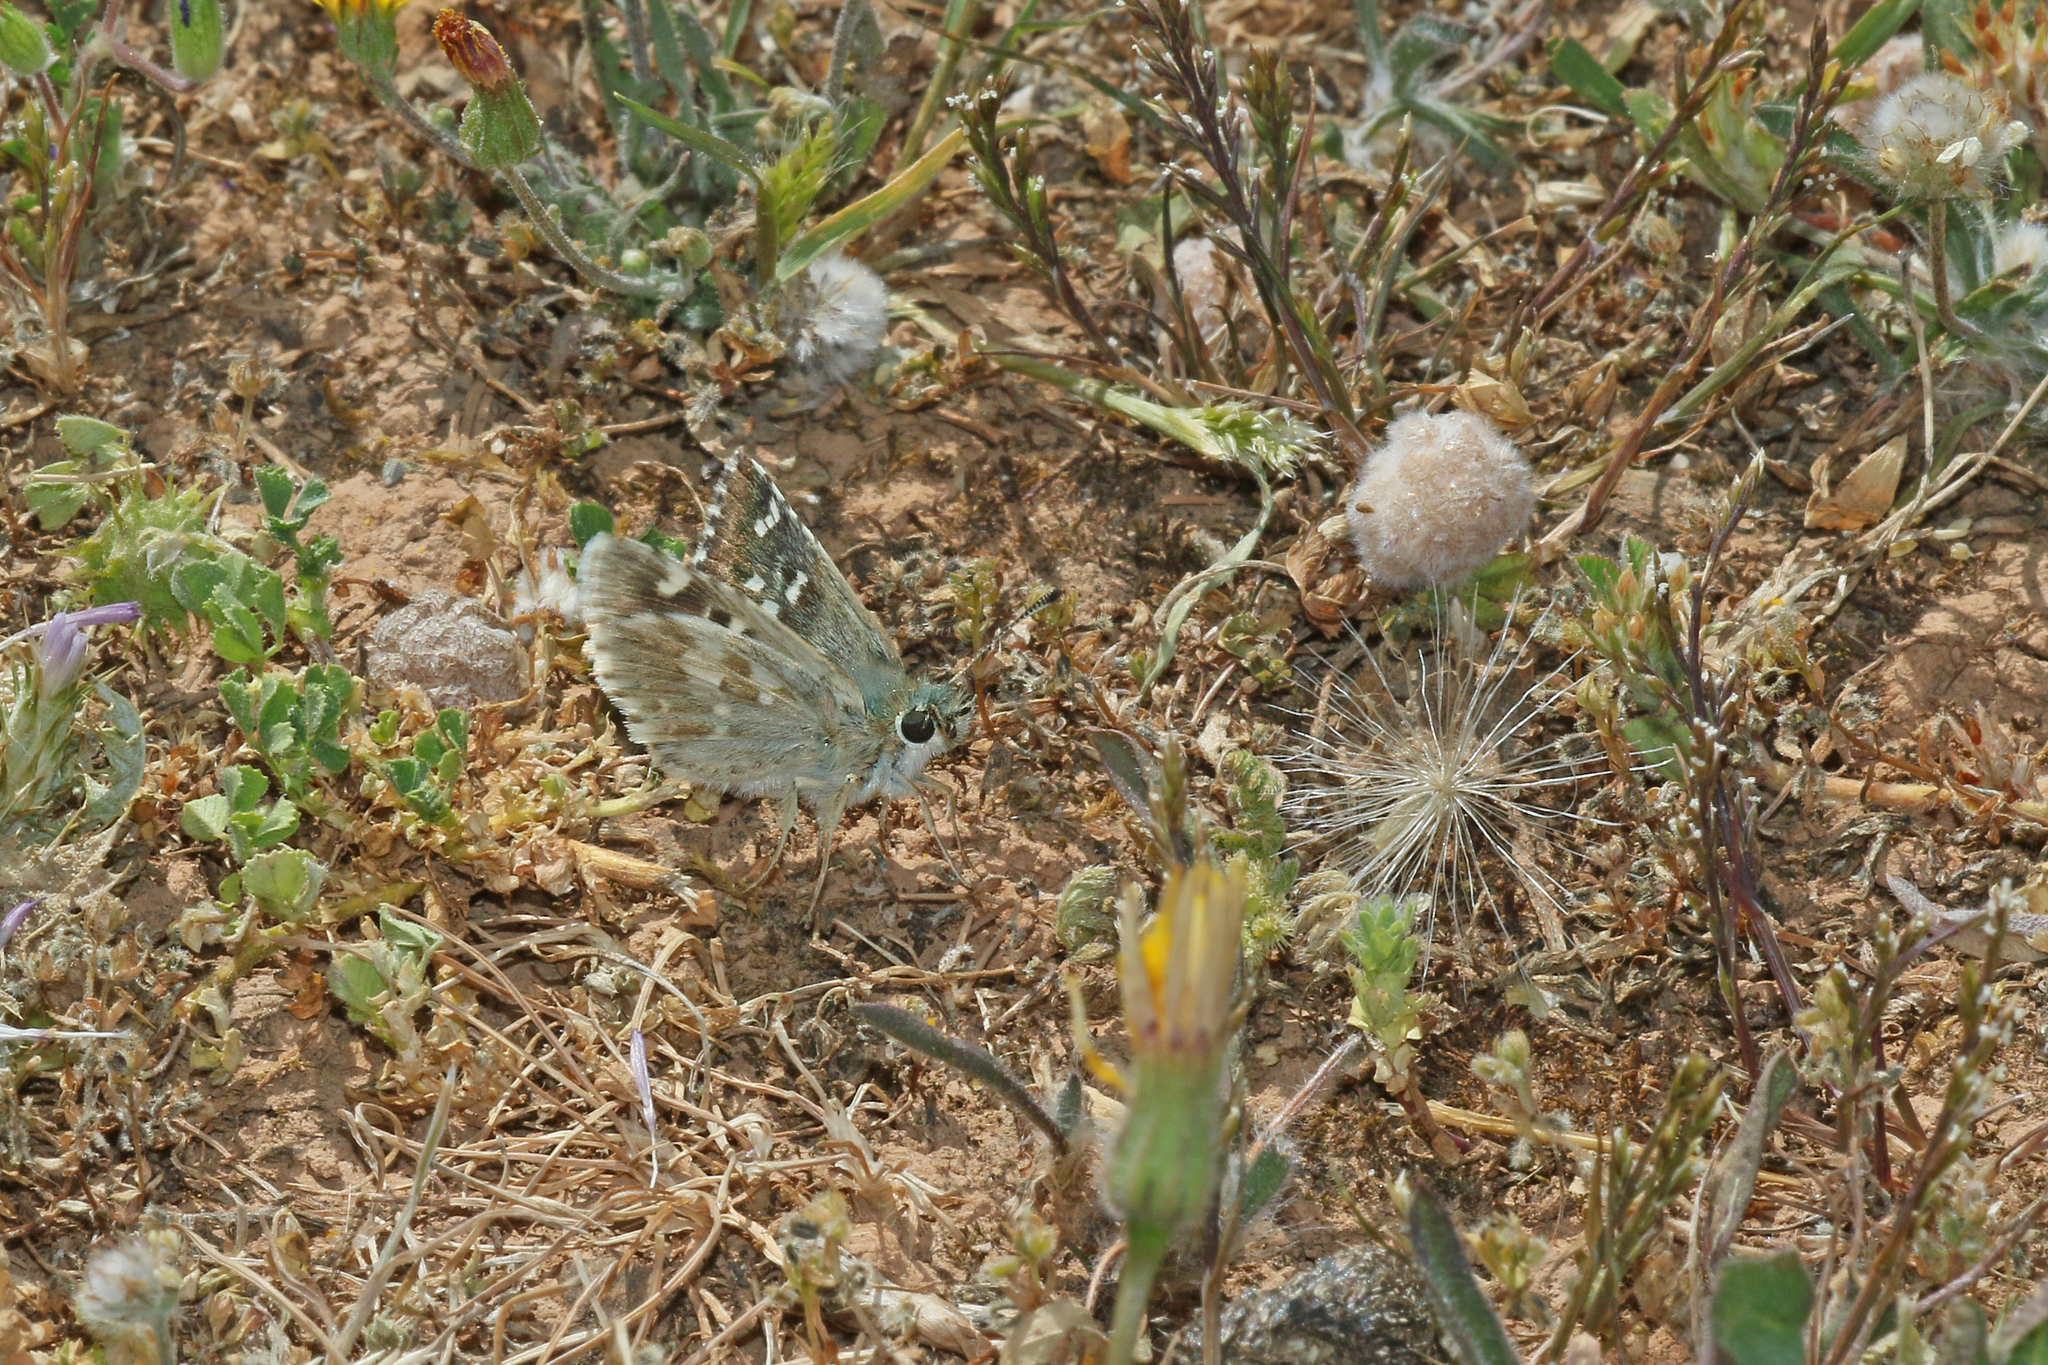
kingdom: Animalia
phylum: Arthropoda
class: Insecta
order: Lepidoptera
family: Hesperiidae
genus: Syrichtus
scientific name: Syrichtus Muschampia proto
